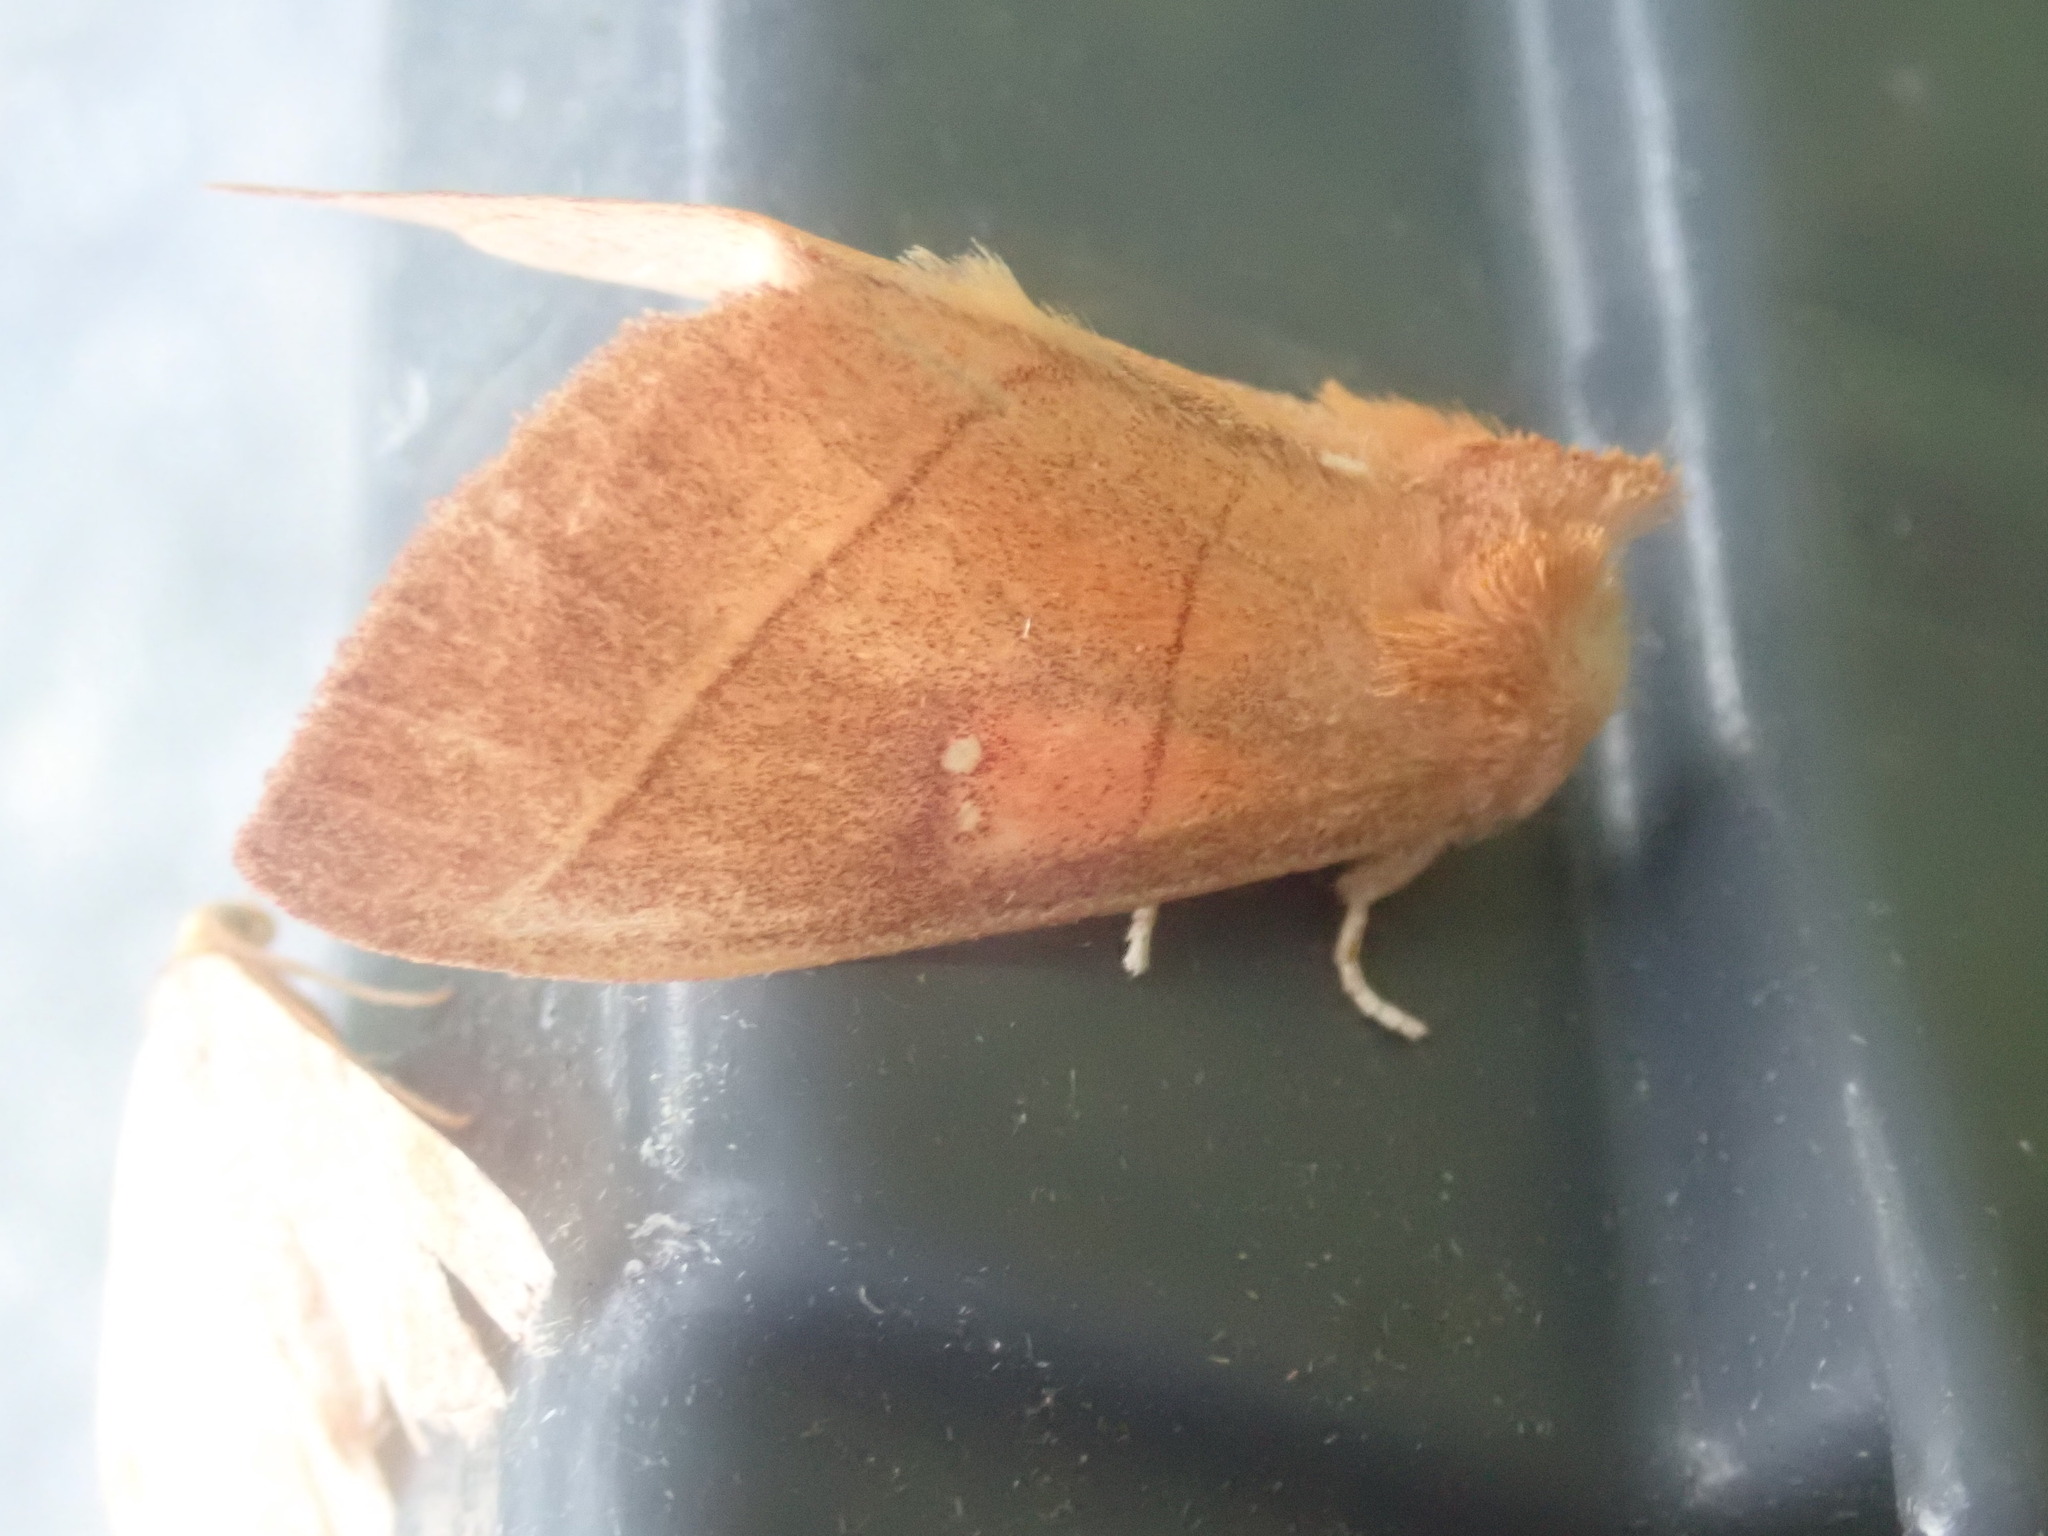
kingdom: Animalia
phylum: Arthropoda
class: Insecta
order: Lepidoptera
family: Notodontidae
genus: Nadata
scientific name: Nadata gibbosa
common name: White-dotted prominent
